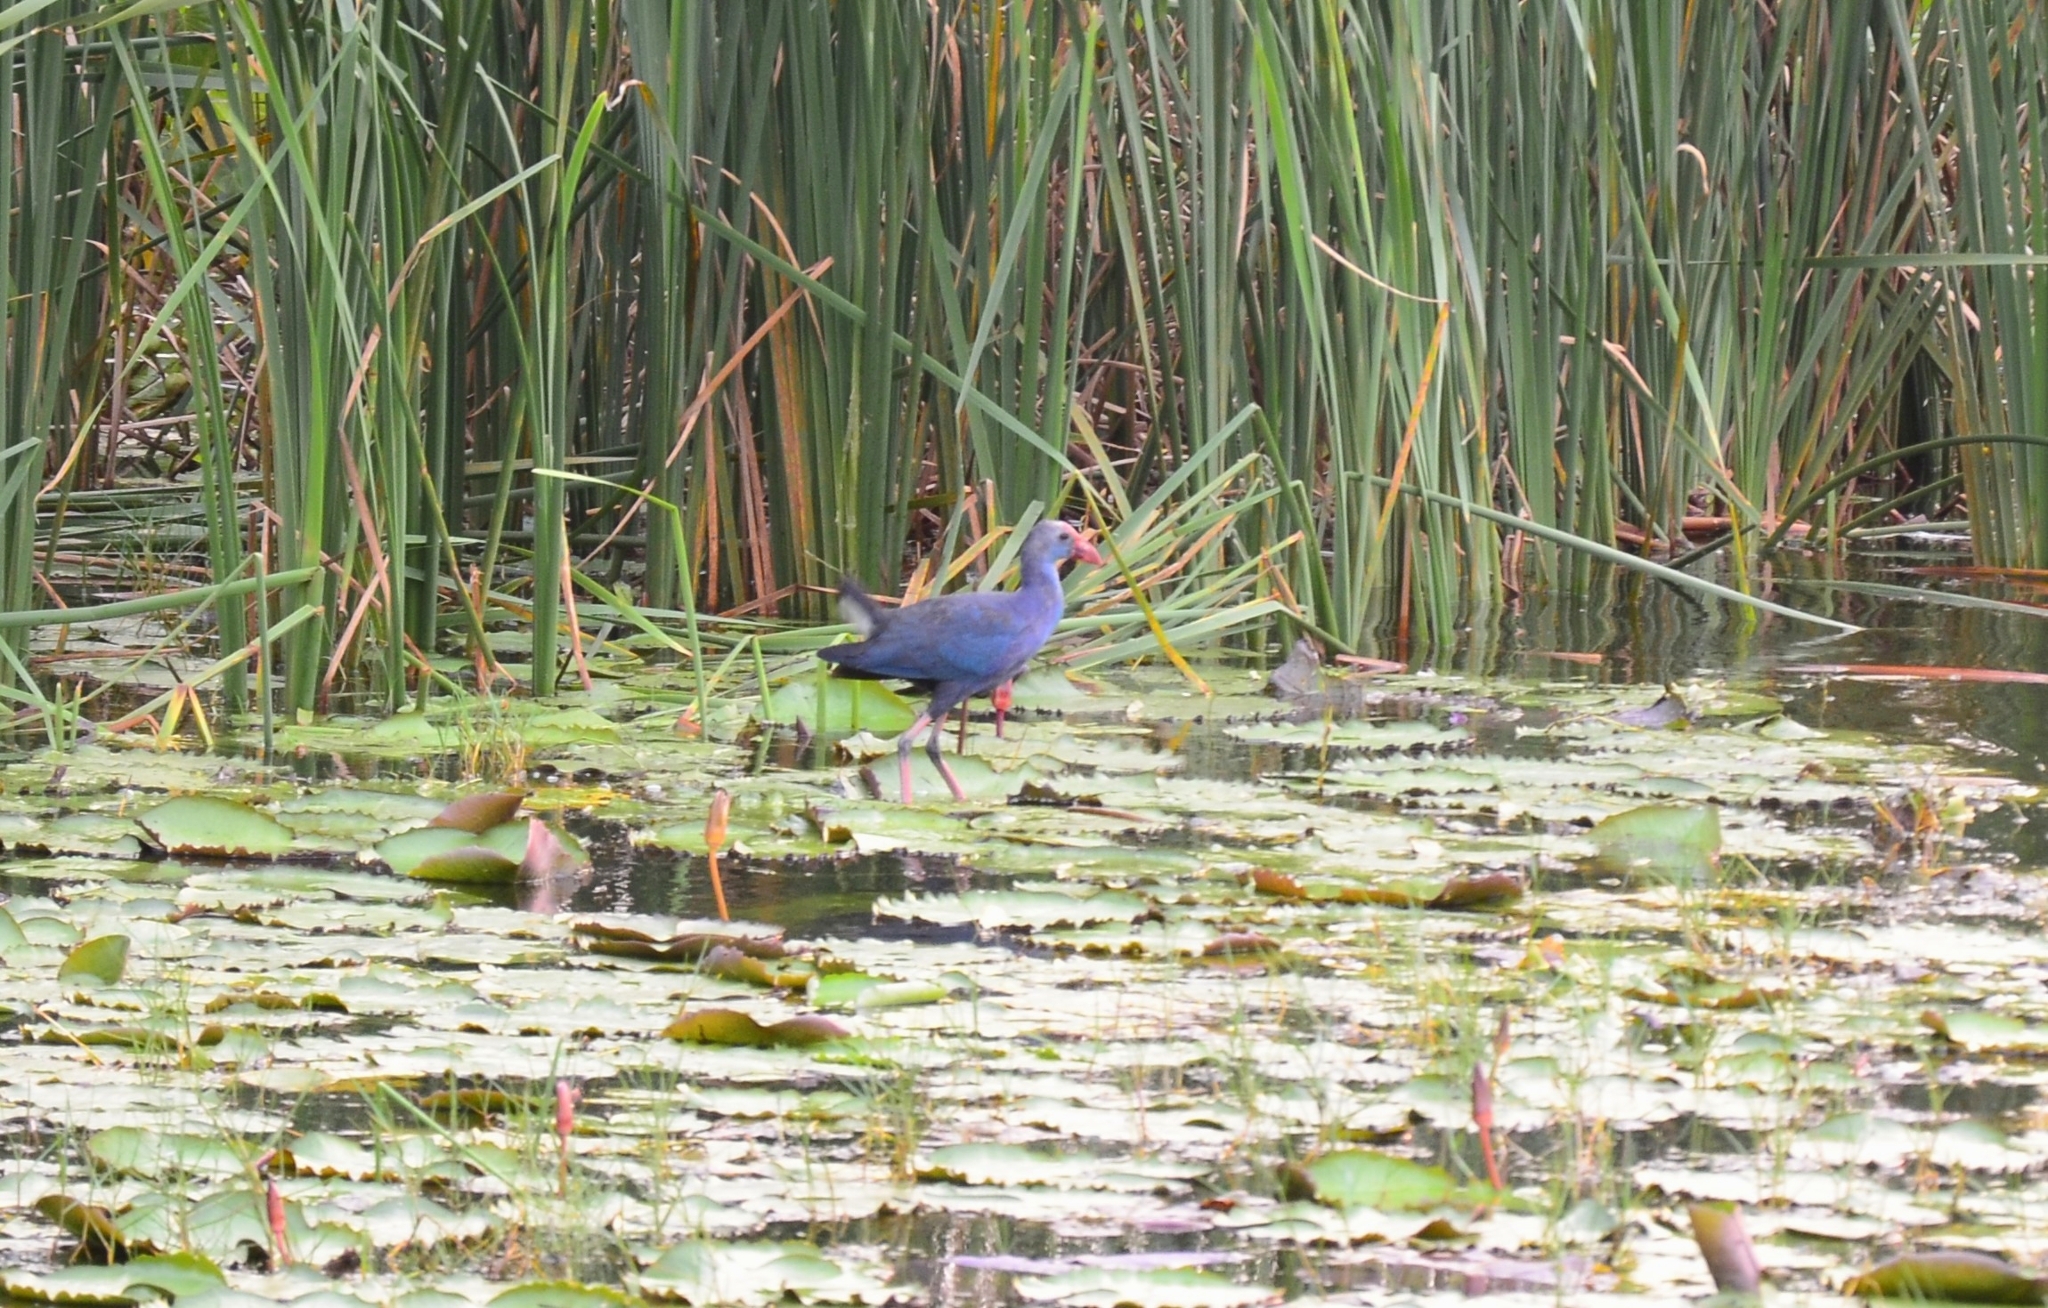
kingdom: Animalia
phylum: Chordata
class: Aves
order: Gruiformes
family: Rallidae
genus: Porphyrio
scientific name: Porphyrio porphyrio
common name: Purple swamphen
